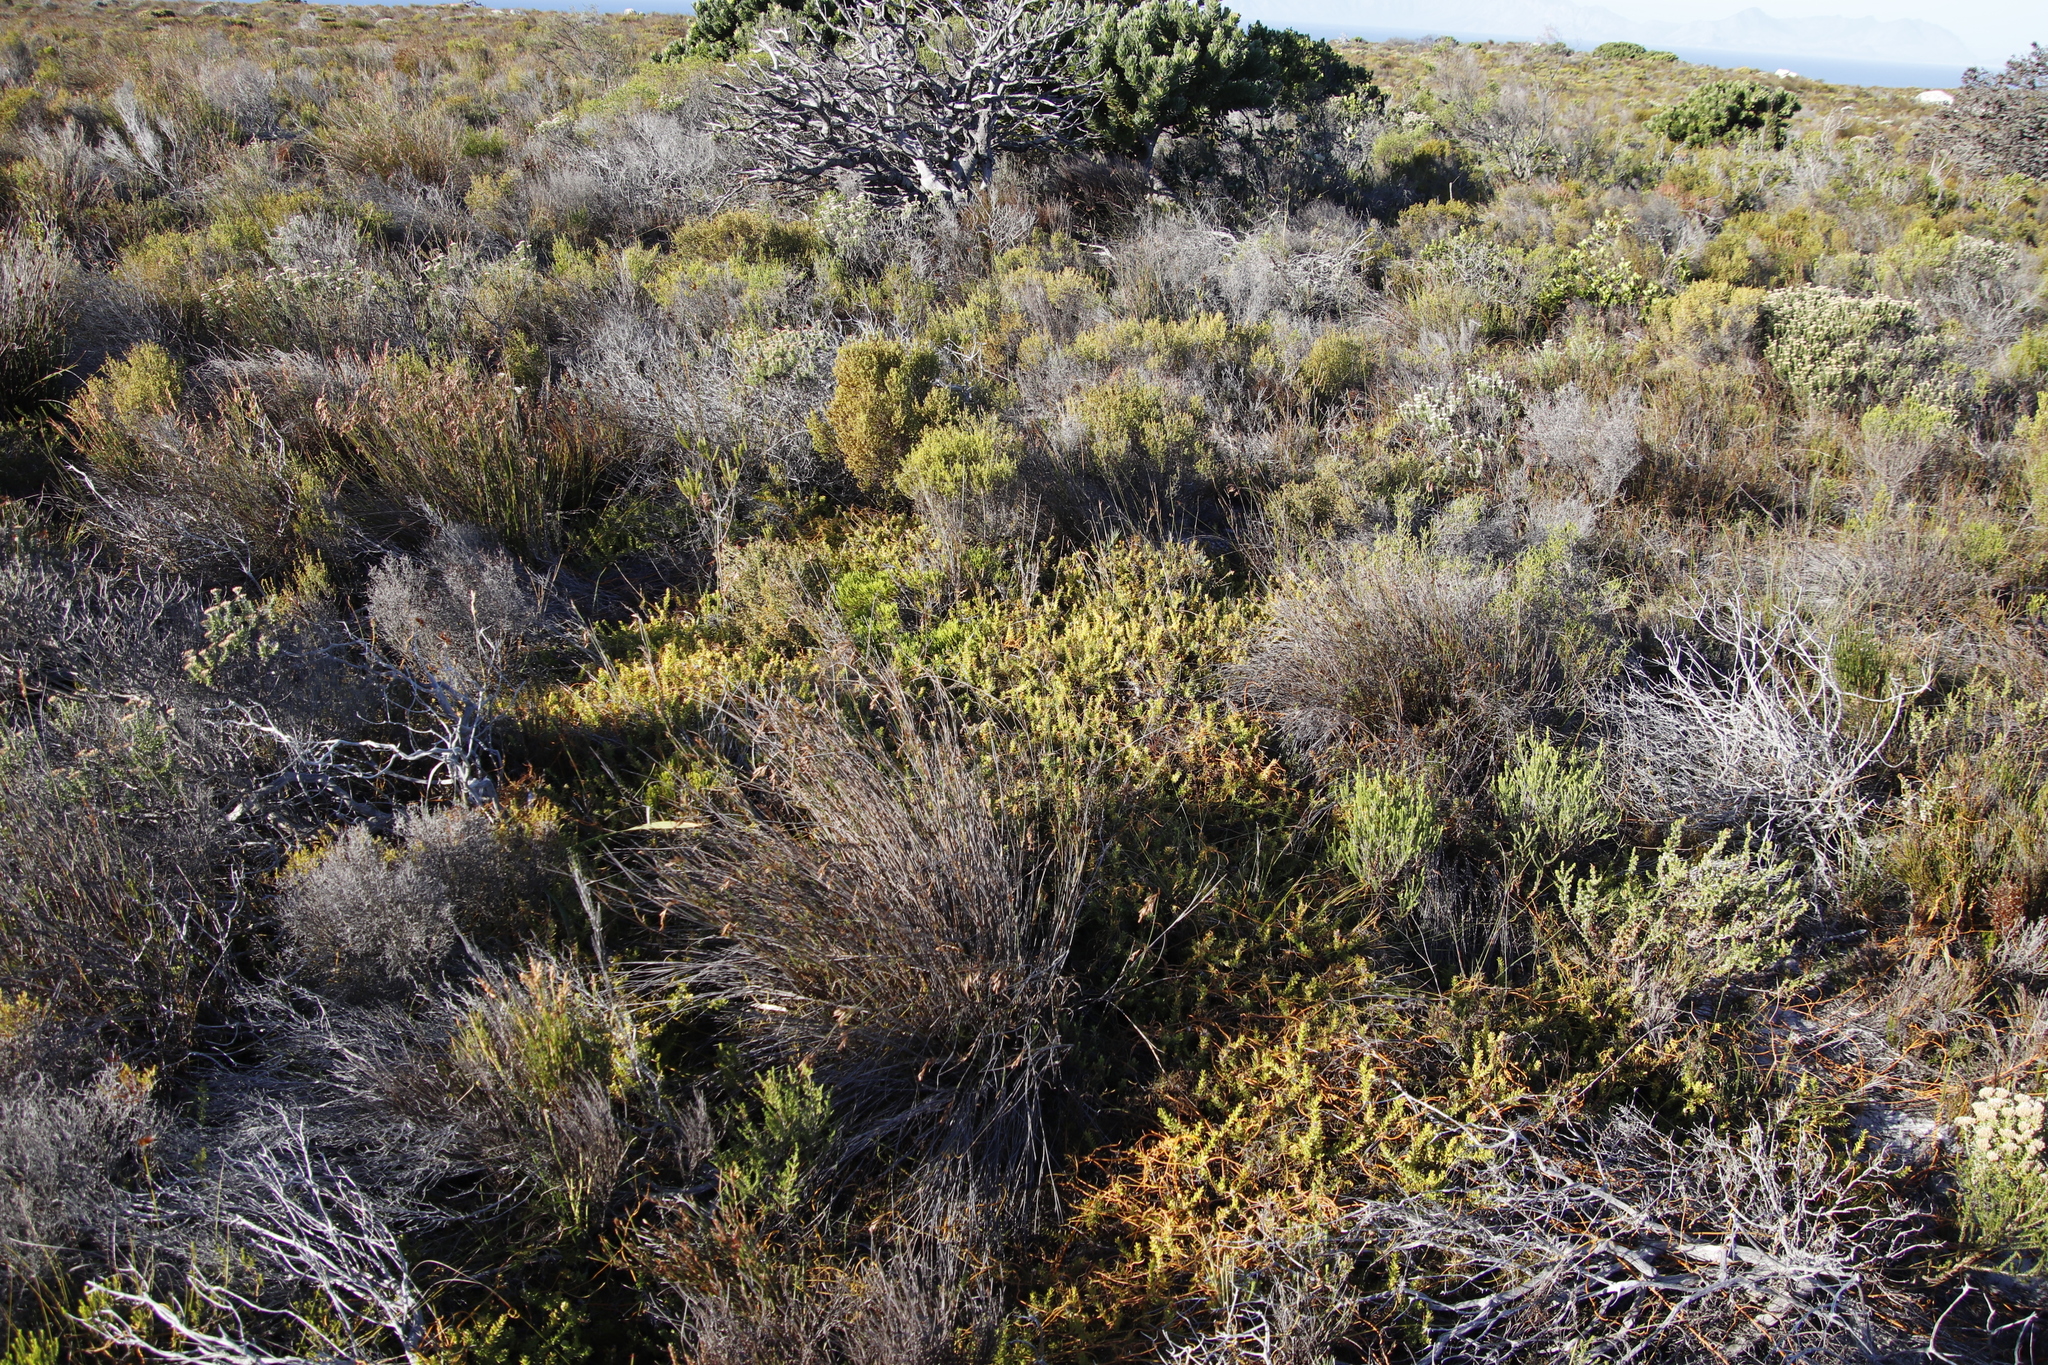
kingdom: Plantae
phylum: Tracheophyta
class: Magnoliopsida
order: Laurales
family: Lauraceae
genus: Cassytha
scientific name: Cassytha ciliolata
